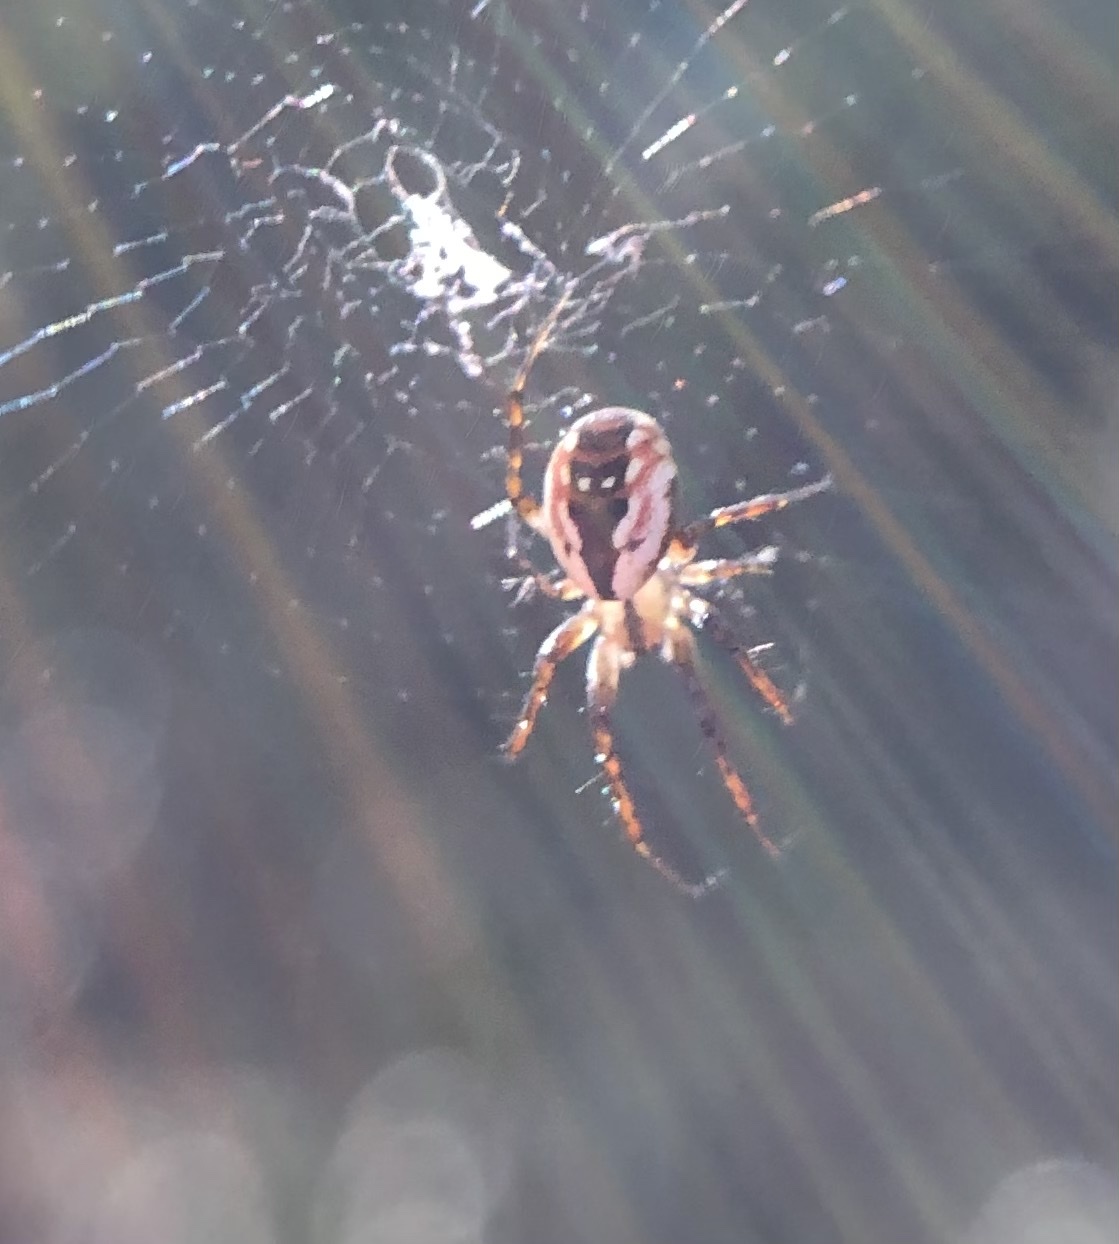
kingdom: Animalia
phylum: Arthropoda
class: Arachnida
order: Araneae
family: Araneidae
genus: Mangora
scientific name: Mangora placida
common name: Tuft-legged orbweaver
